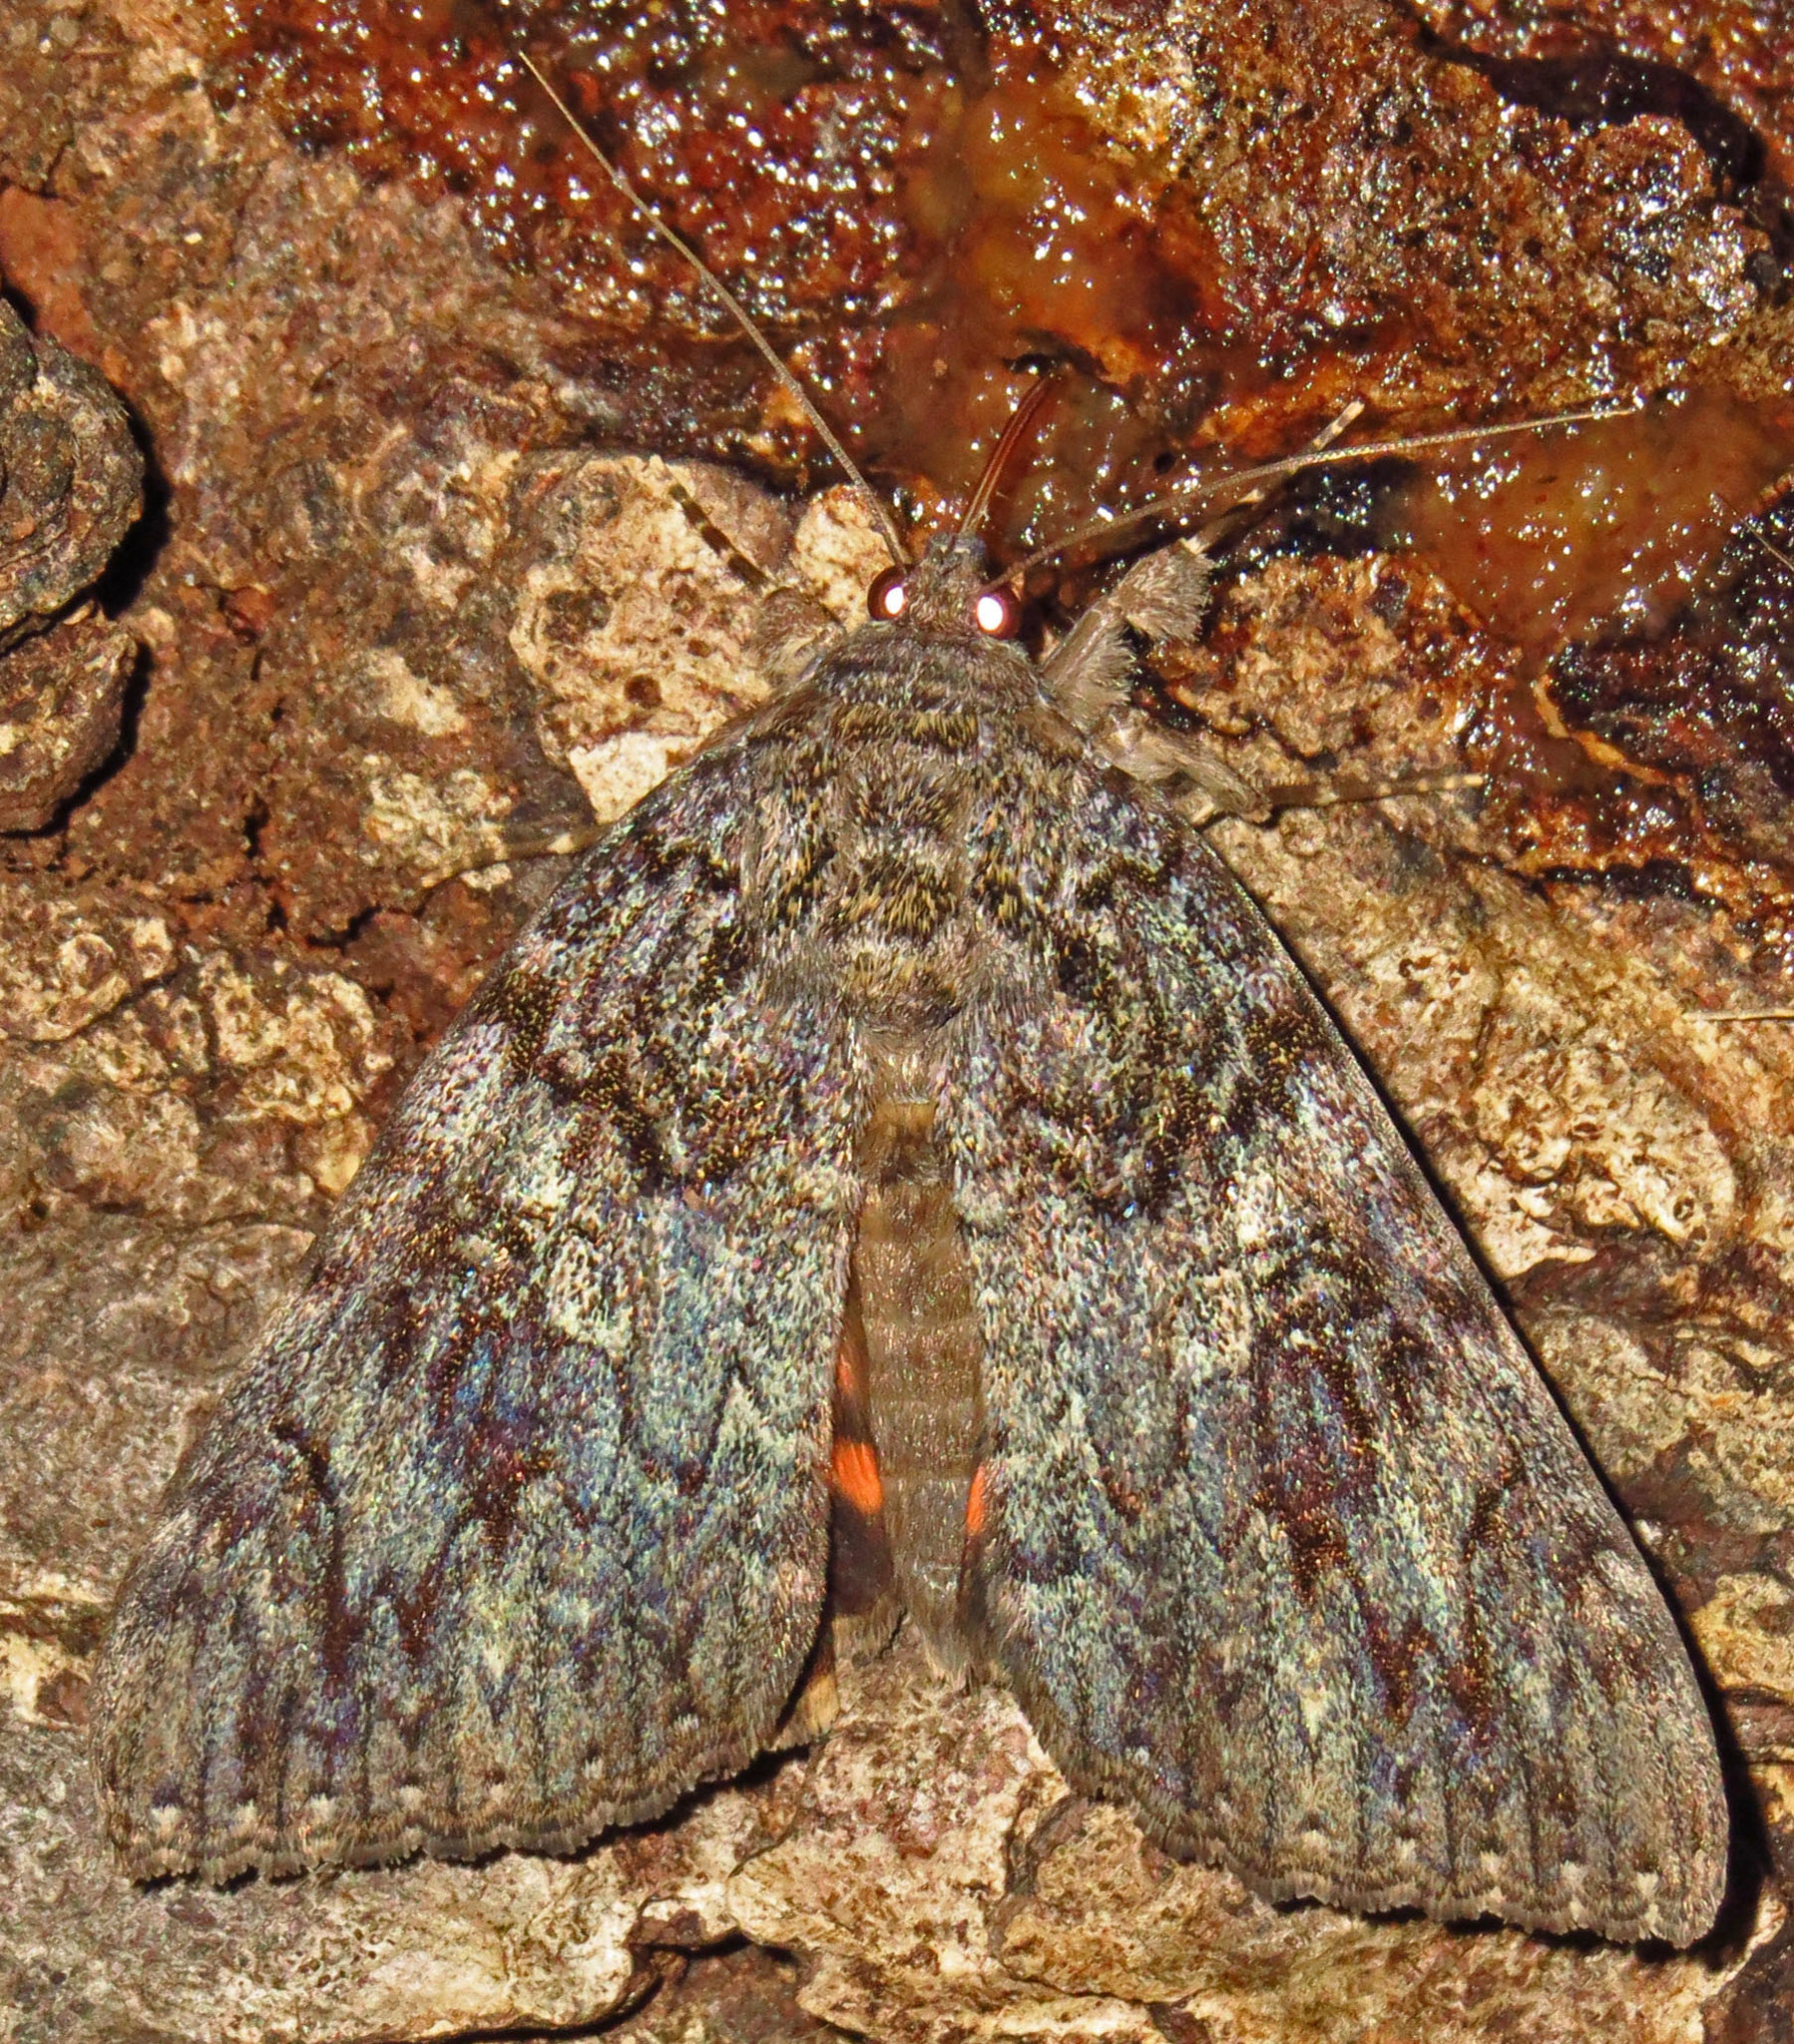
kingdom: Animalia
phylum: Arthropoda
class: Insecta
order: Lepidoptera
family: Erebidae
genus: Catocala
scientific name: Catocala ilia
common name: Ilia underwing
